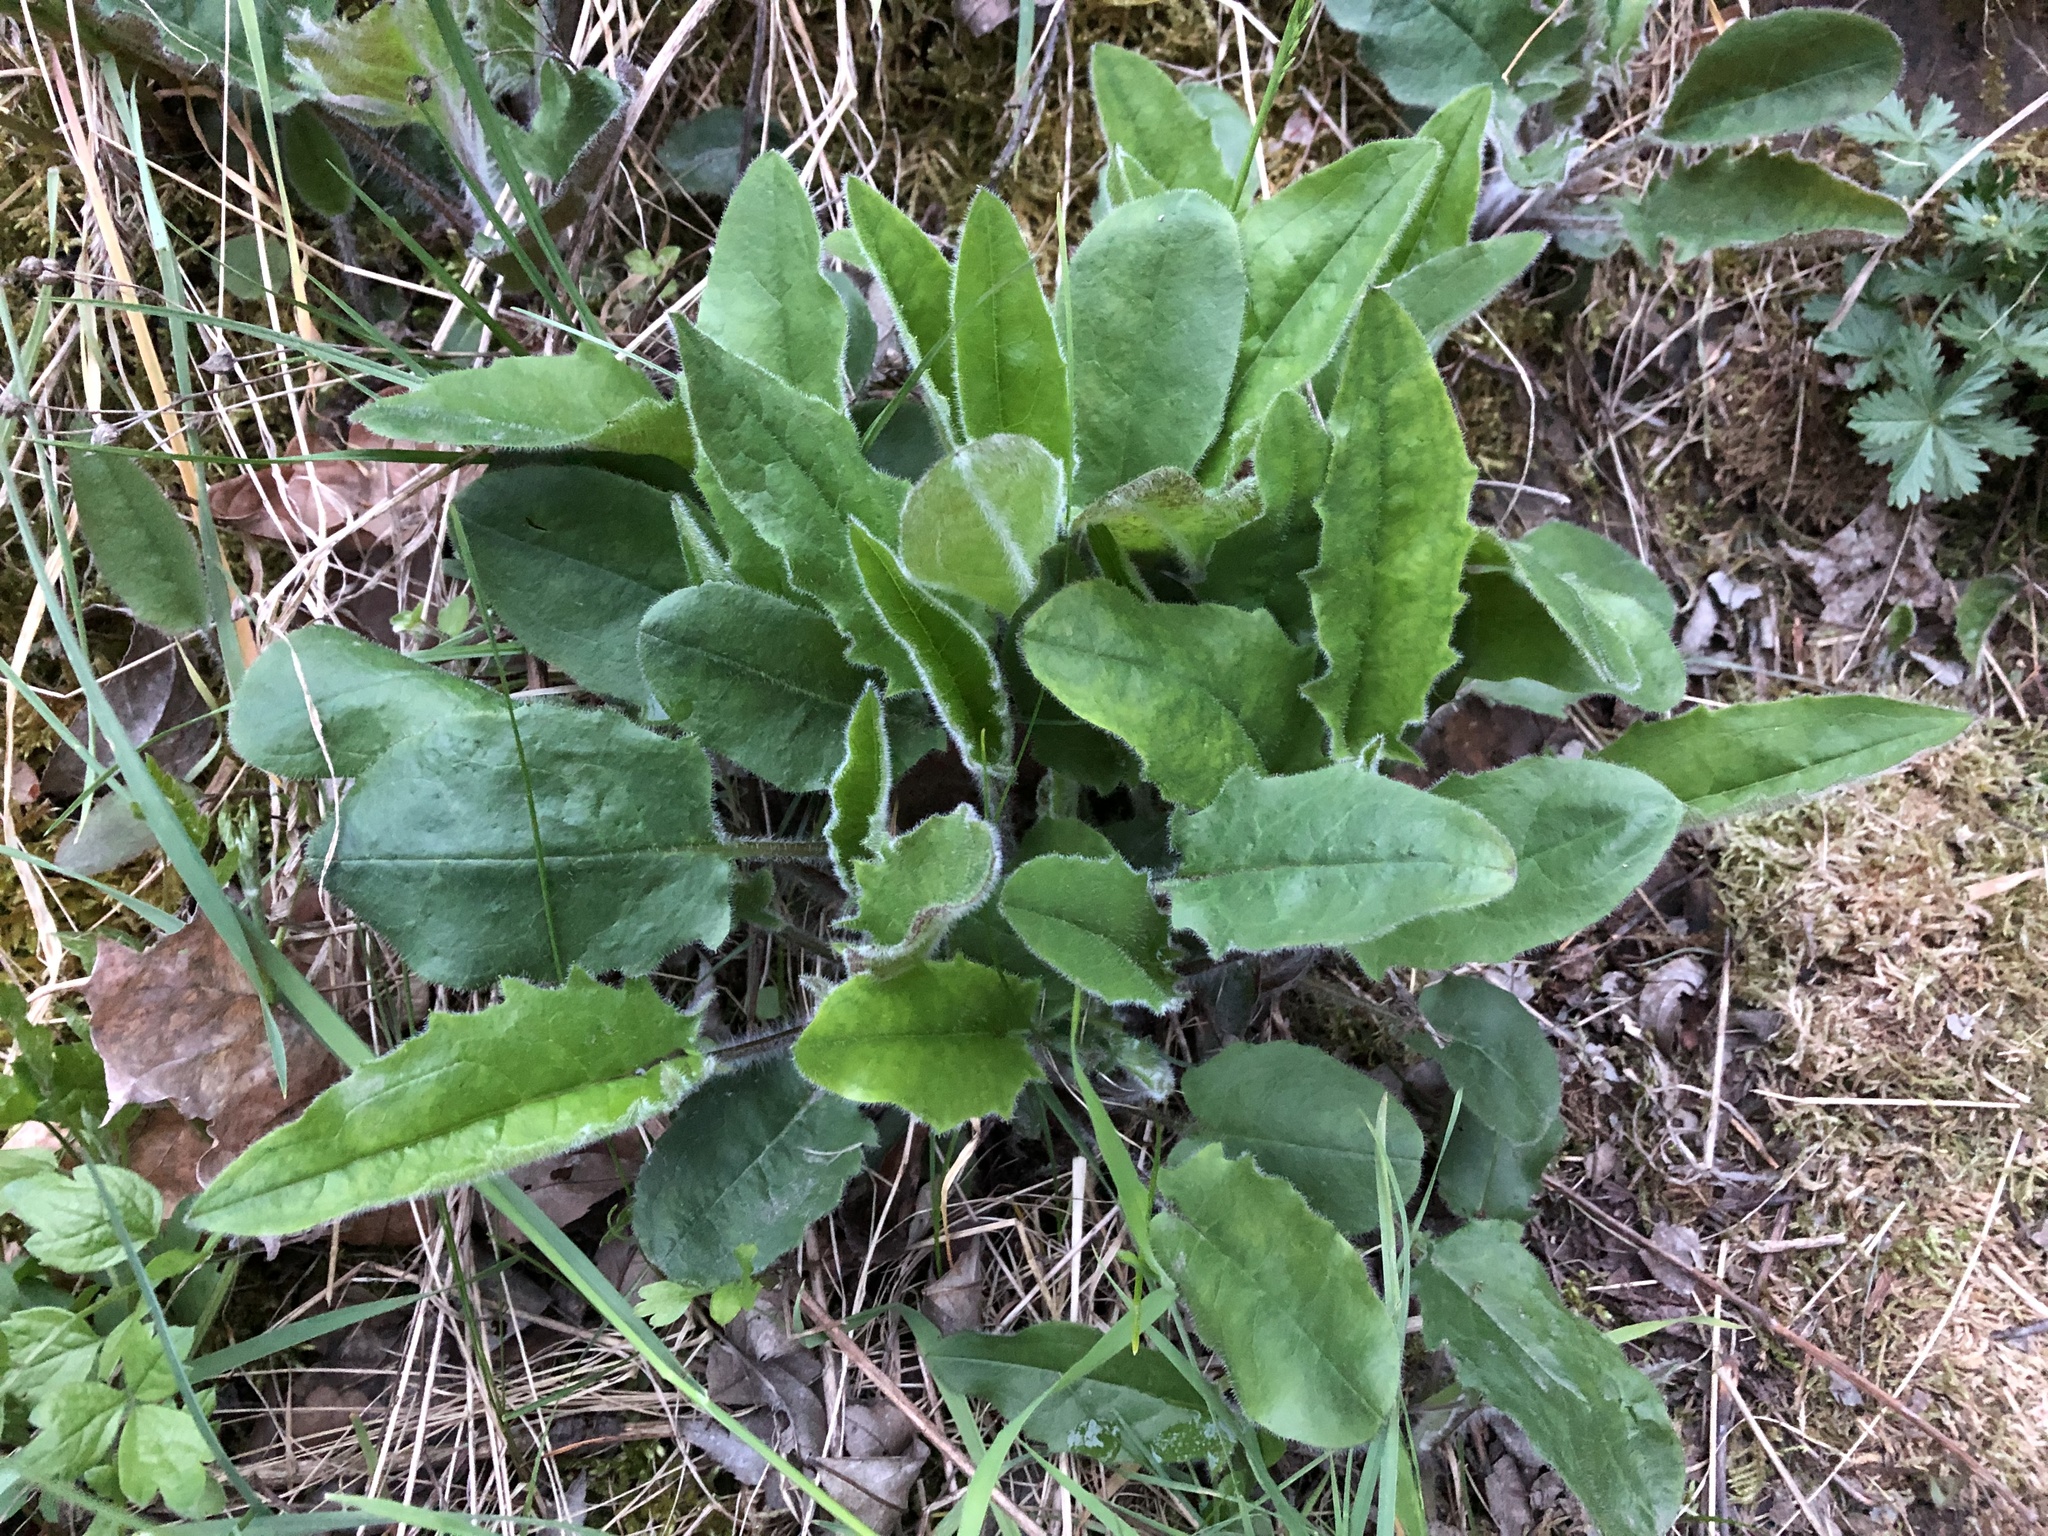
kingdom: Plantae
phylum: Tracheophyta
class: Magnoliopsida
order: Asterales
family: Asteraceae
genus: Hieracium
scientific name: Hieracium murorum
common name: Wall hawkweed
